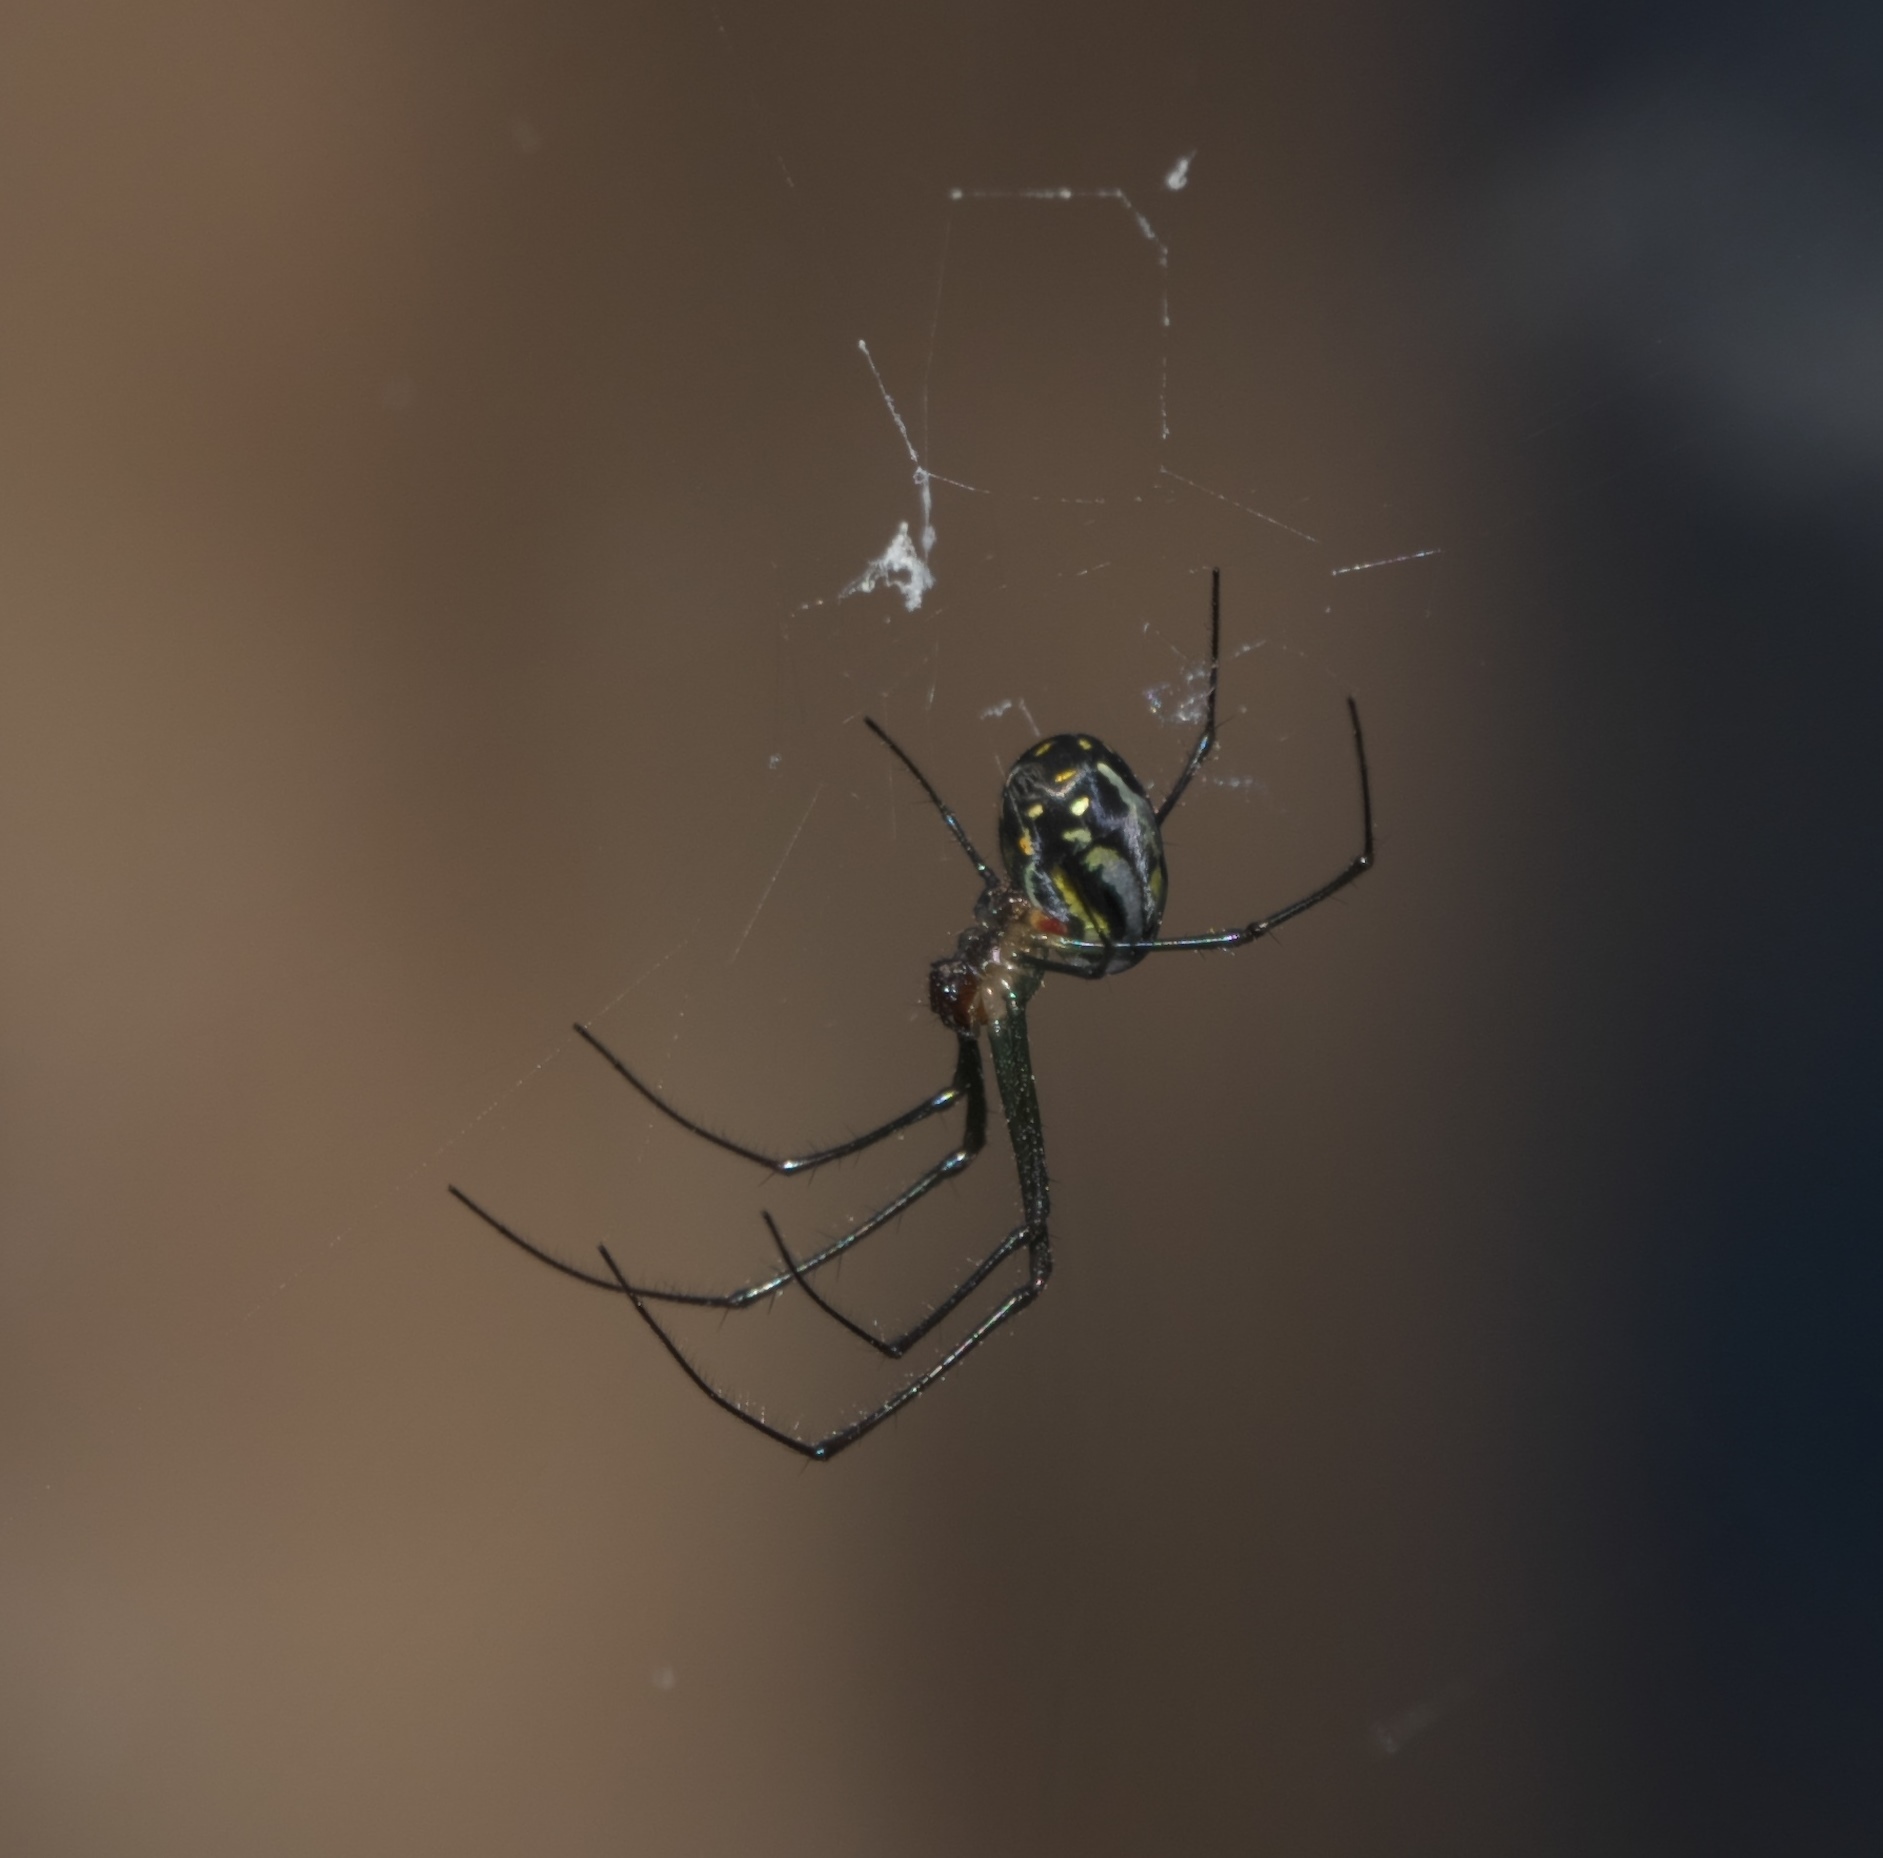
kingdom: Animalia
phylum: Arthropoda
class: Arachnida
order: Araneae
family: Tetragnathidae
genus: Leucauge
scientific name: Leucauge argyra
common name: Longjawed orb weavers
